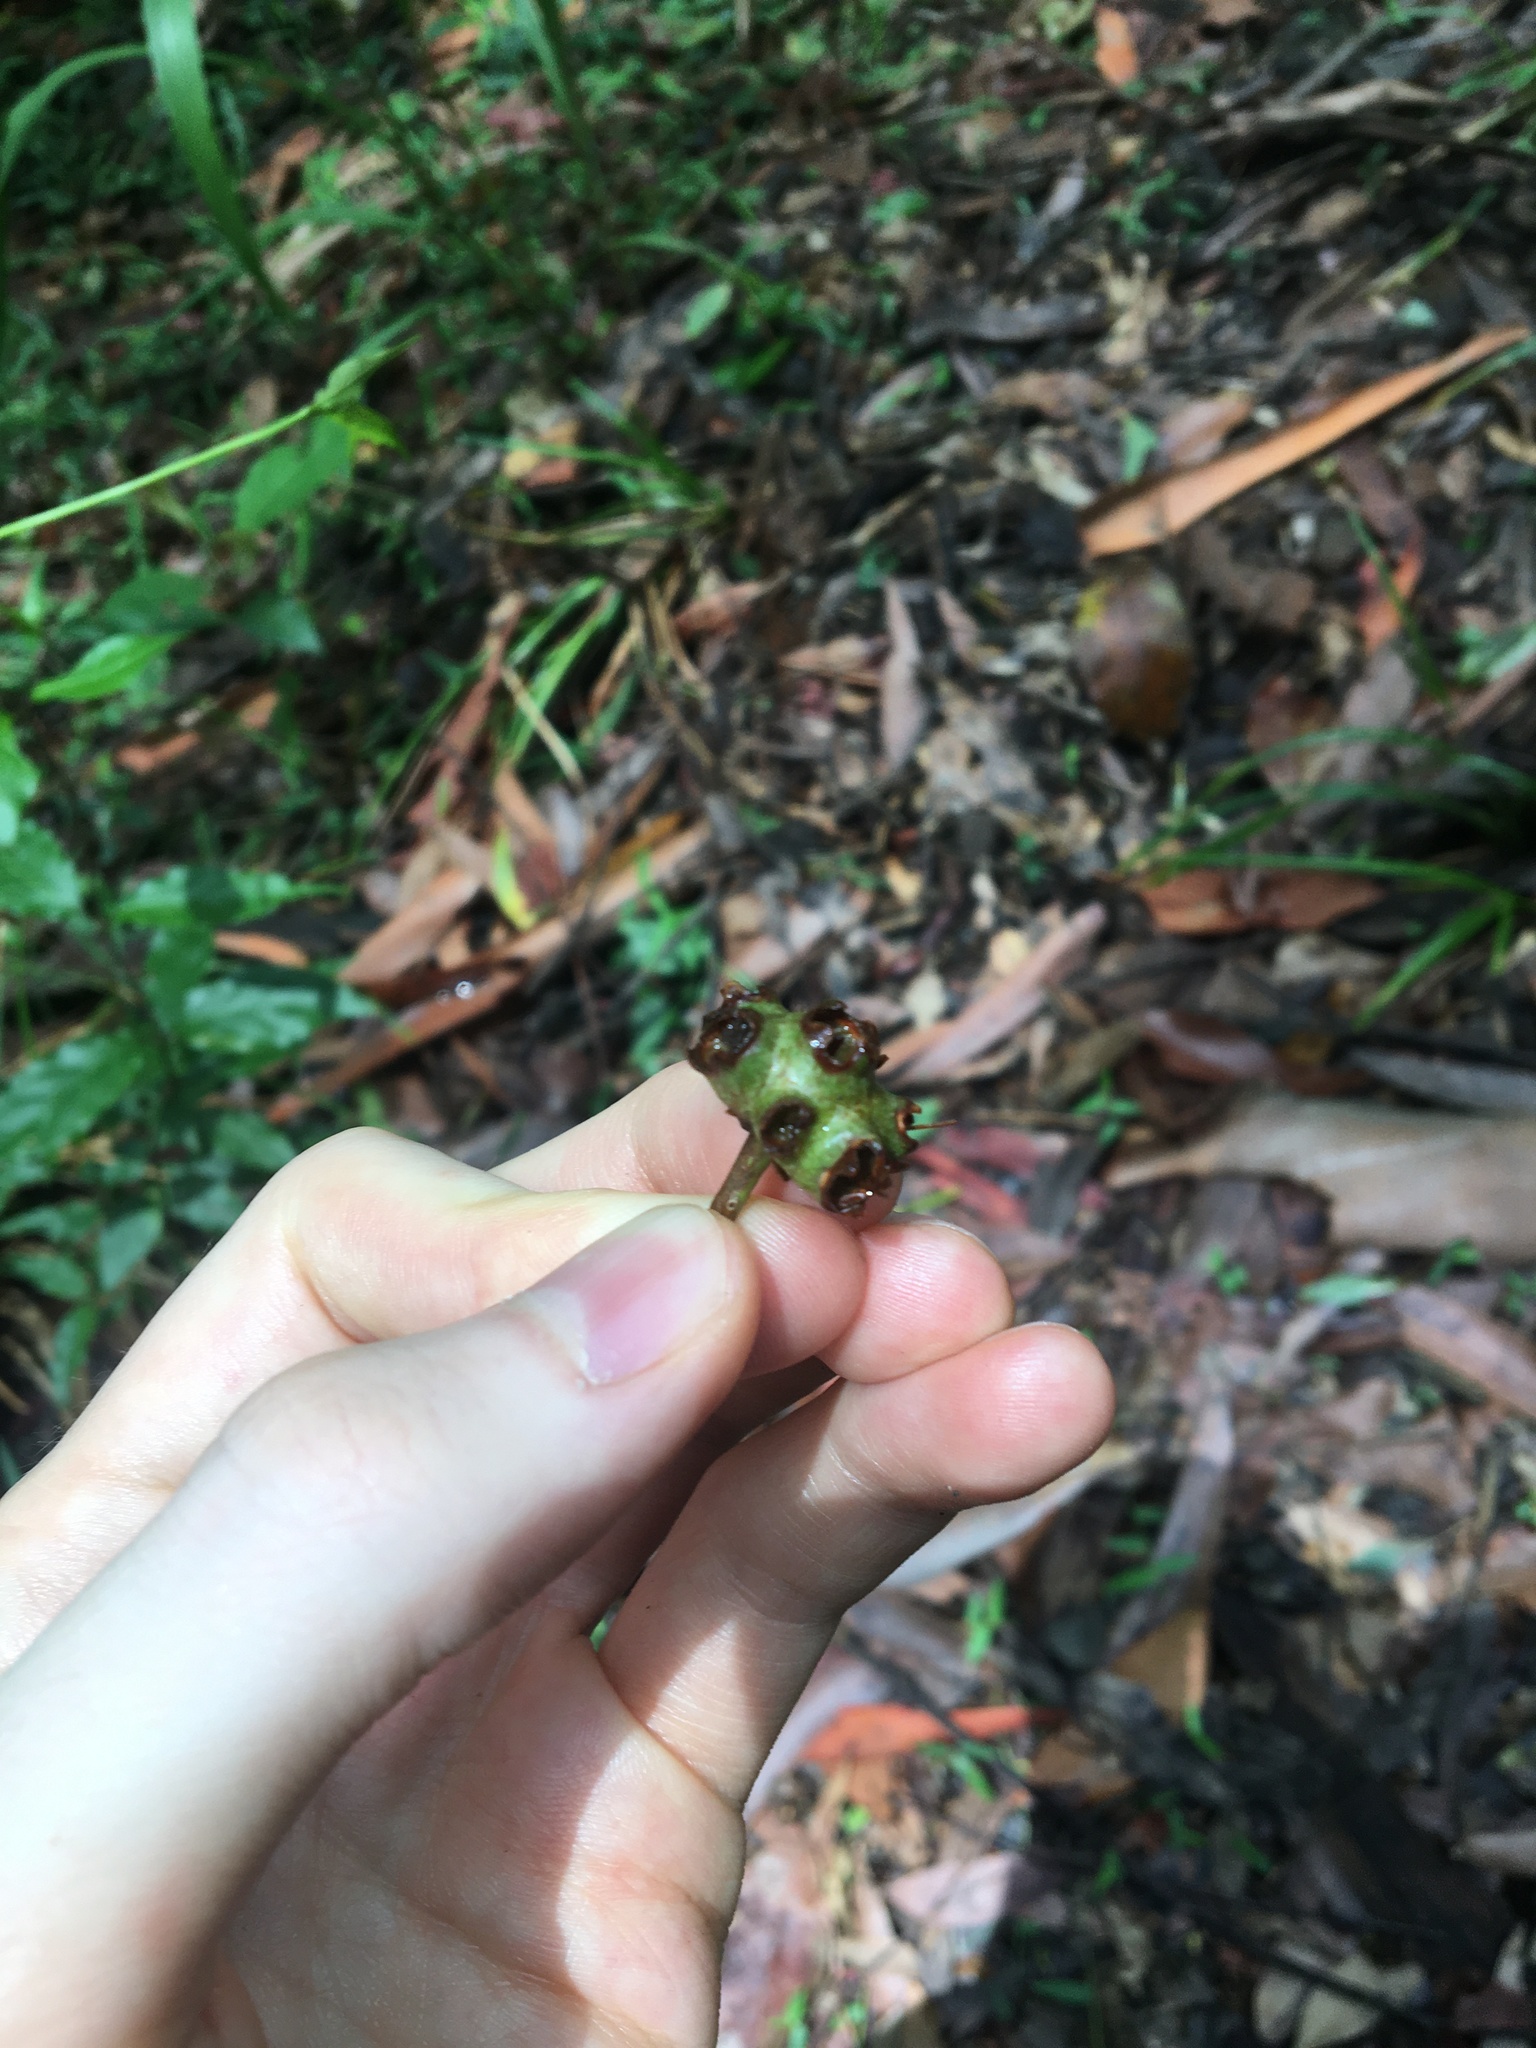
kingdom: Plantae
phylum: Tracheophyta
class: Magnoliopsida
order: Myrtales
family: Myrtaceae
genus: Syncarpia
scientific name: Syncarpia glomulifera
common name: Turpentine tree
